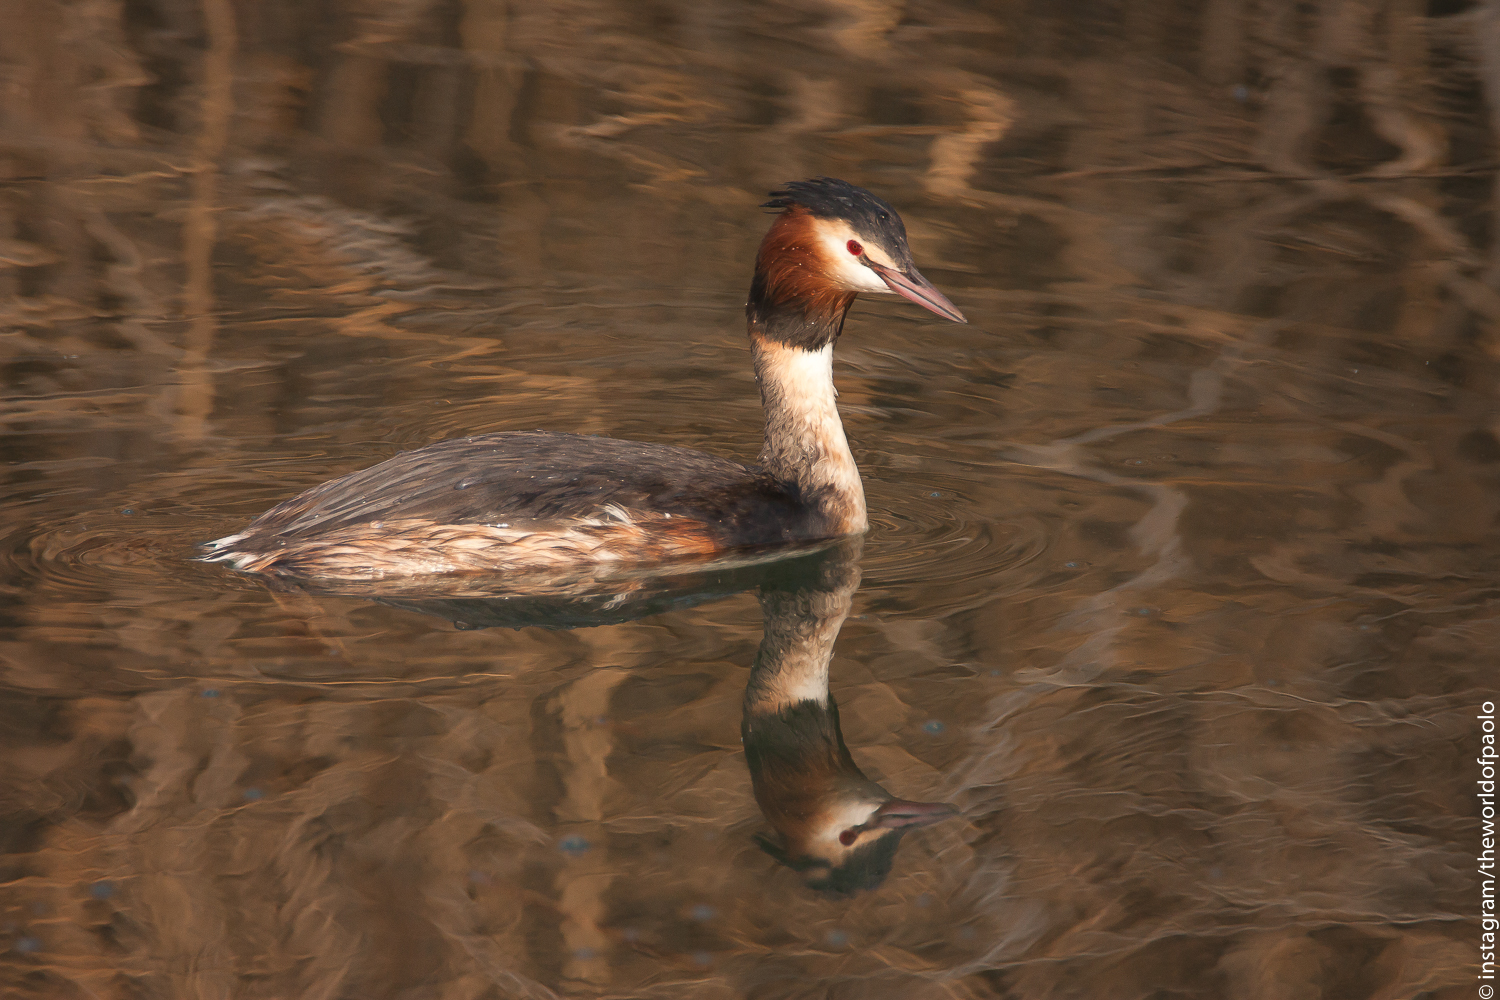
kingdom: Animalia
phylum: Chordata
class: Aves
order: Podicipediformes
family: Podicipedidae
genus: Podiceps
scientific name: Podiceps cristatus
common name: Great crested grebe
